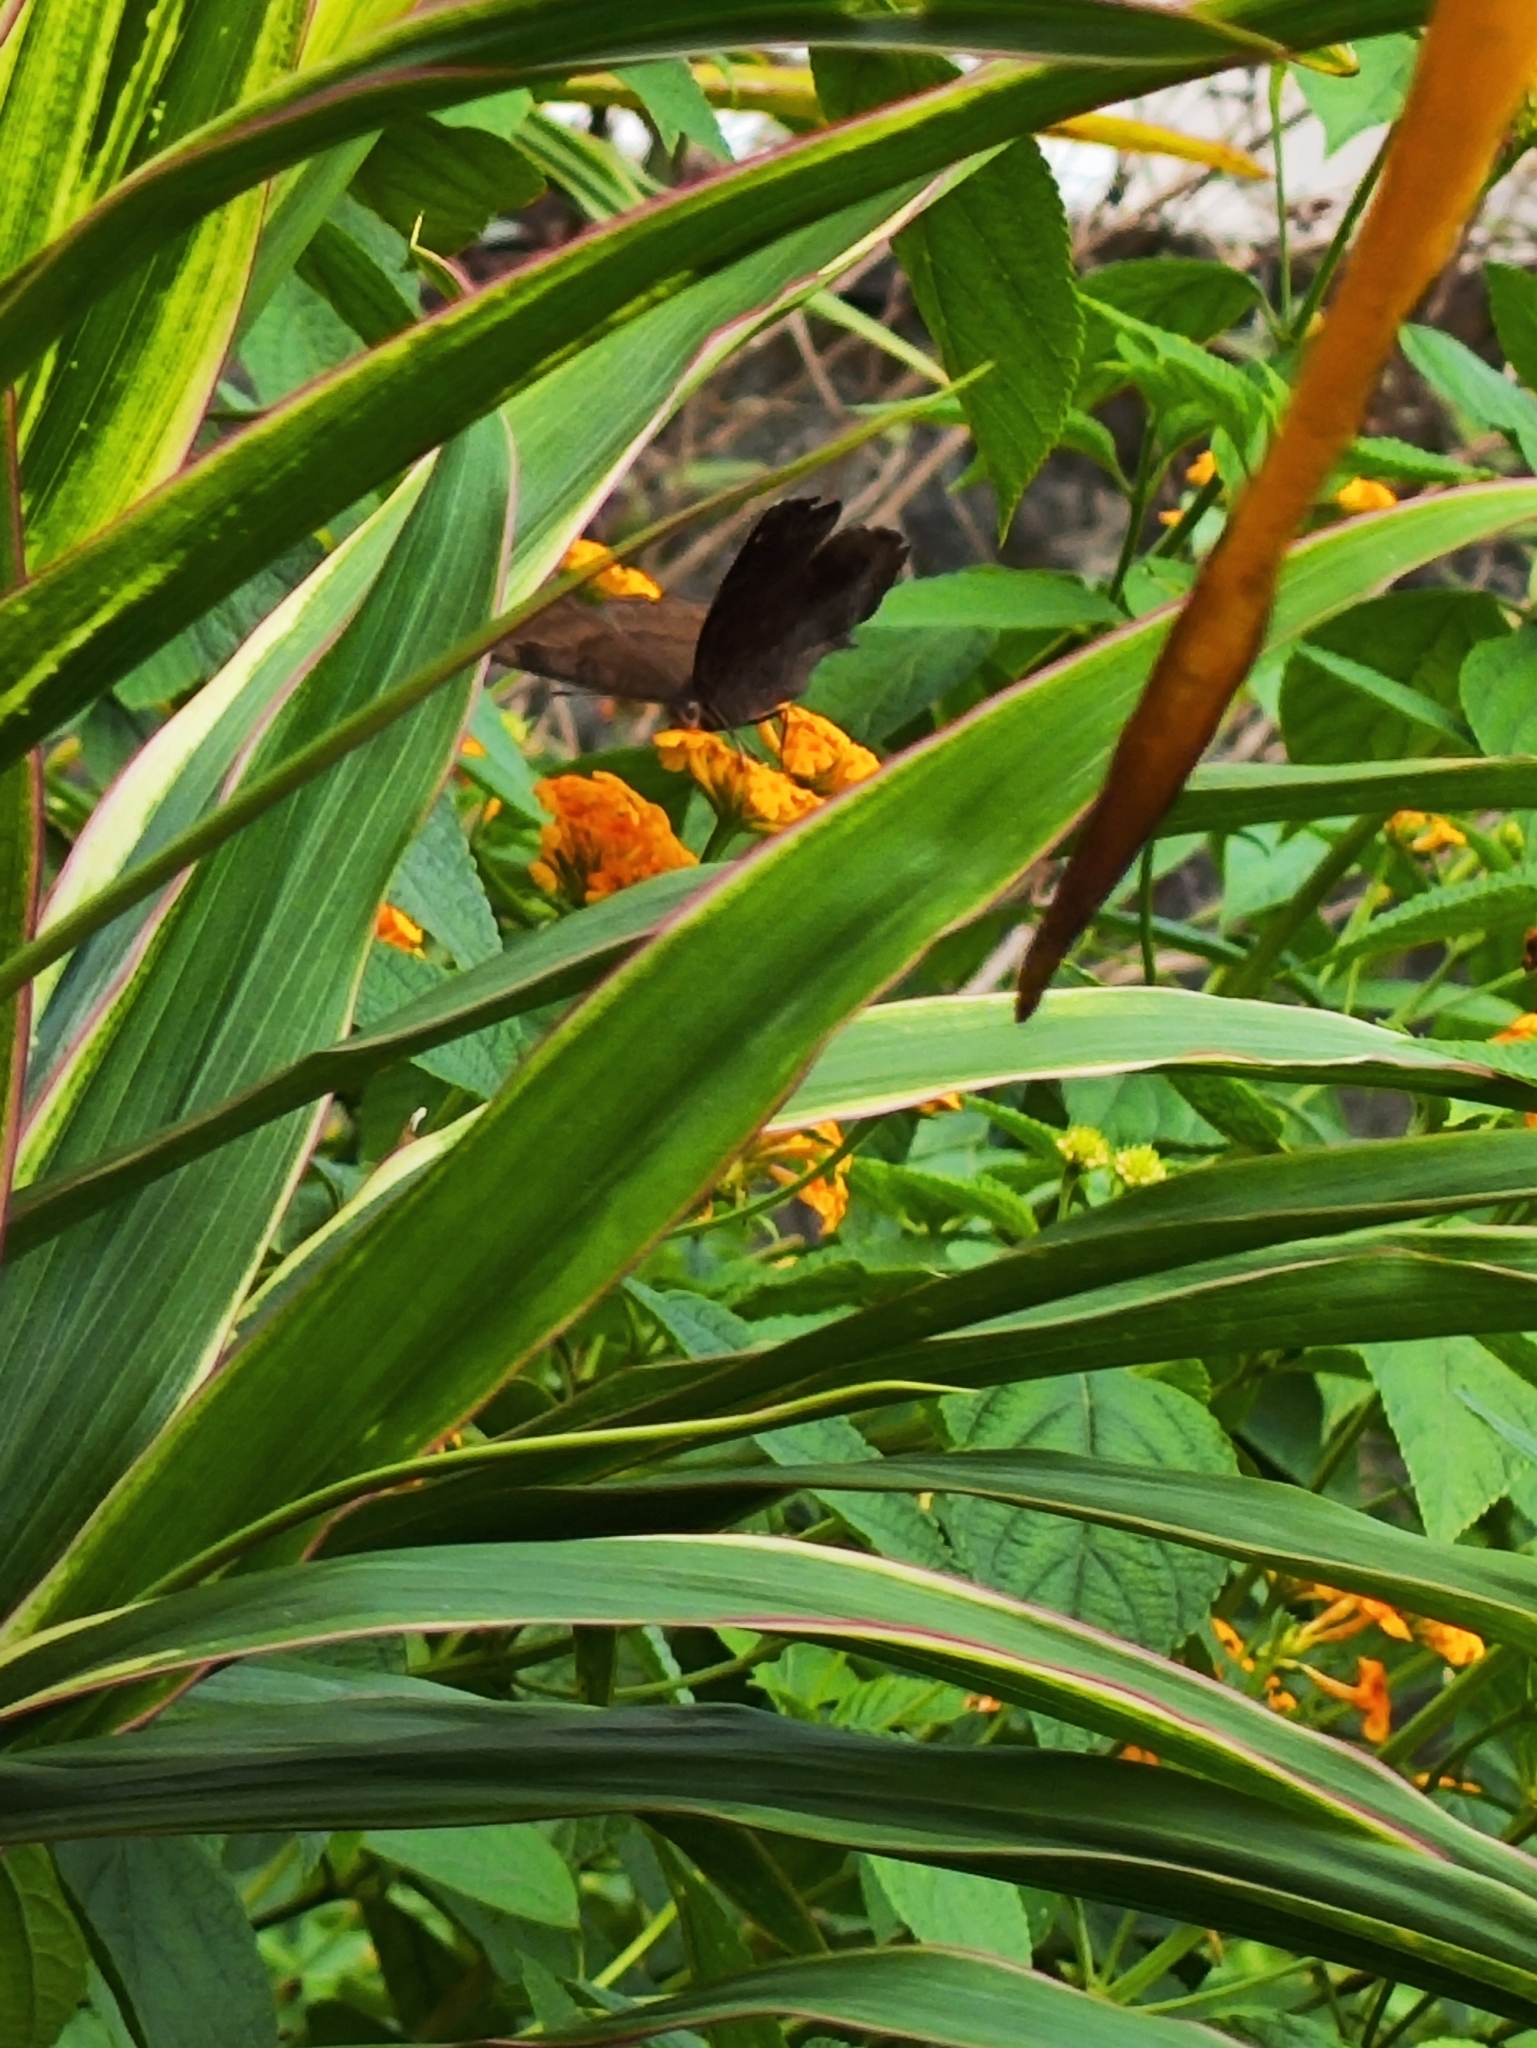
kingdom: Animalia
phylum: Arthropoda
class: Insecta
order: Lepidoptera
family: Nymphalidae
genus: Junonia
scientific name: Junonia iphita
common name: Chocolate pansy
